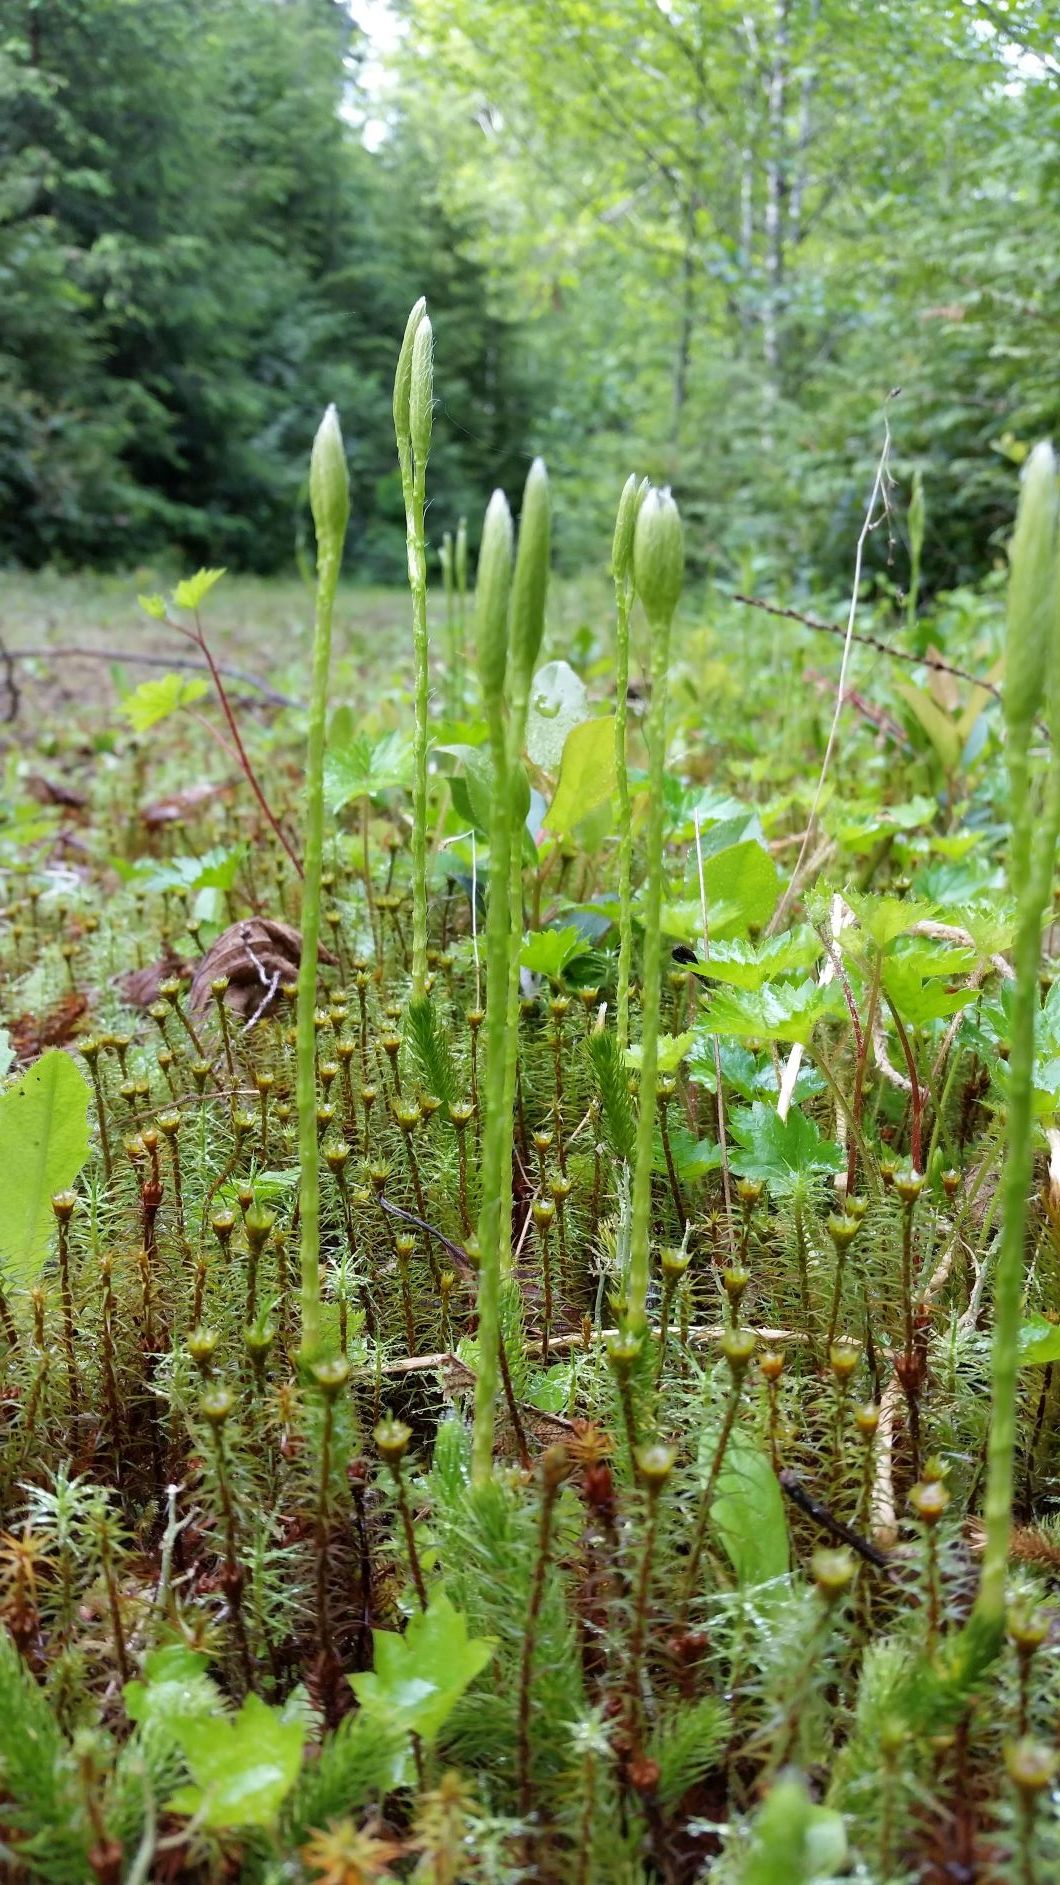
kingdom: Plantae
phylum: Tracheophyta
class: Lycopodiopsida
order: Lycopodiales
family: Lycopodiaceae
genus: Lycopodium
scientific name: Lycopodium clavatum
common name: Stag's-horn clubmoss
